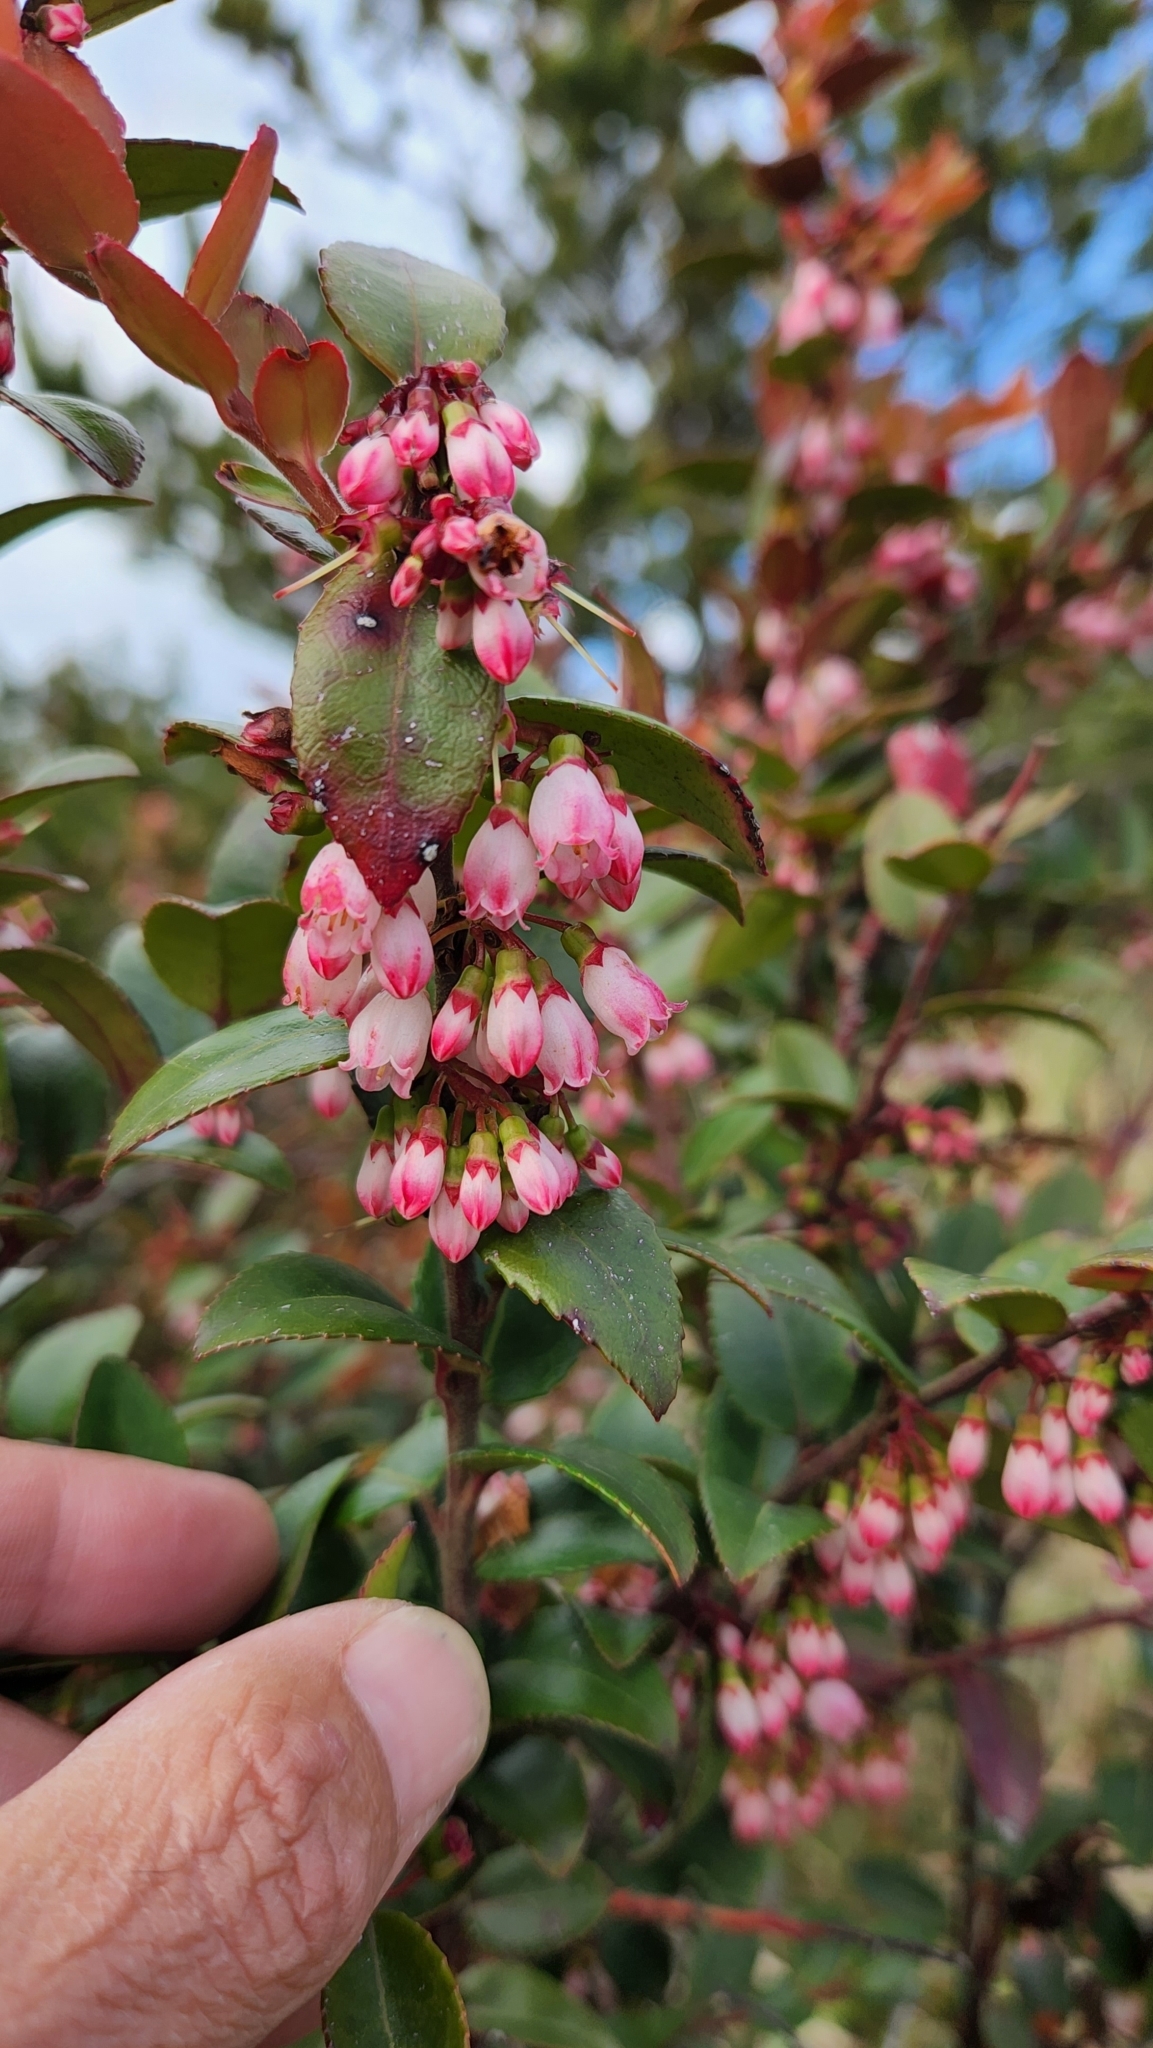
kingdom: Plantae
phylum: Tracheophyta
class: Magnoliopsida
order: Ericales
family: Ericaceae
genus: Vaccinium
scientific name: Vaccinium ovatum
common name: California-huckleberry
